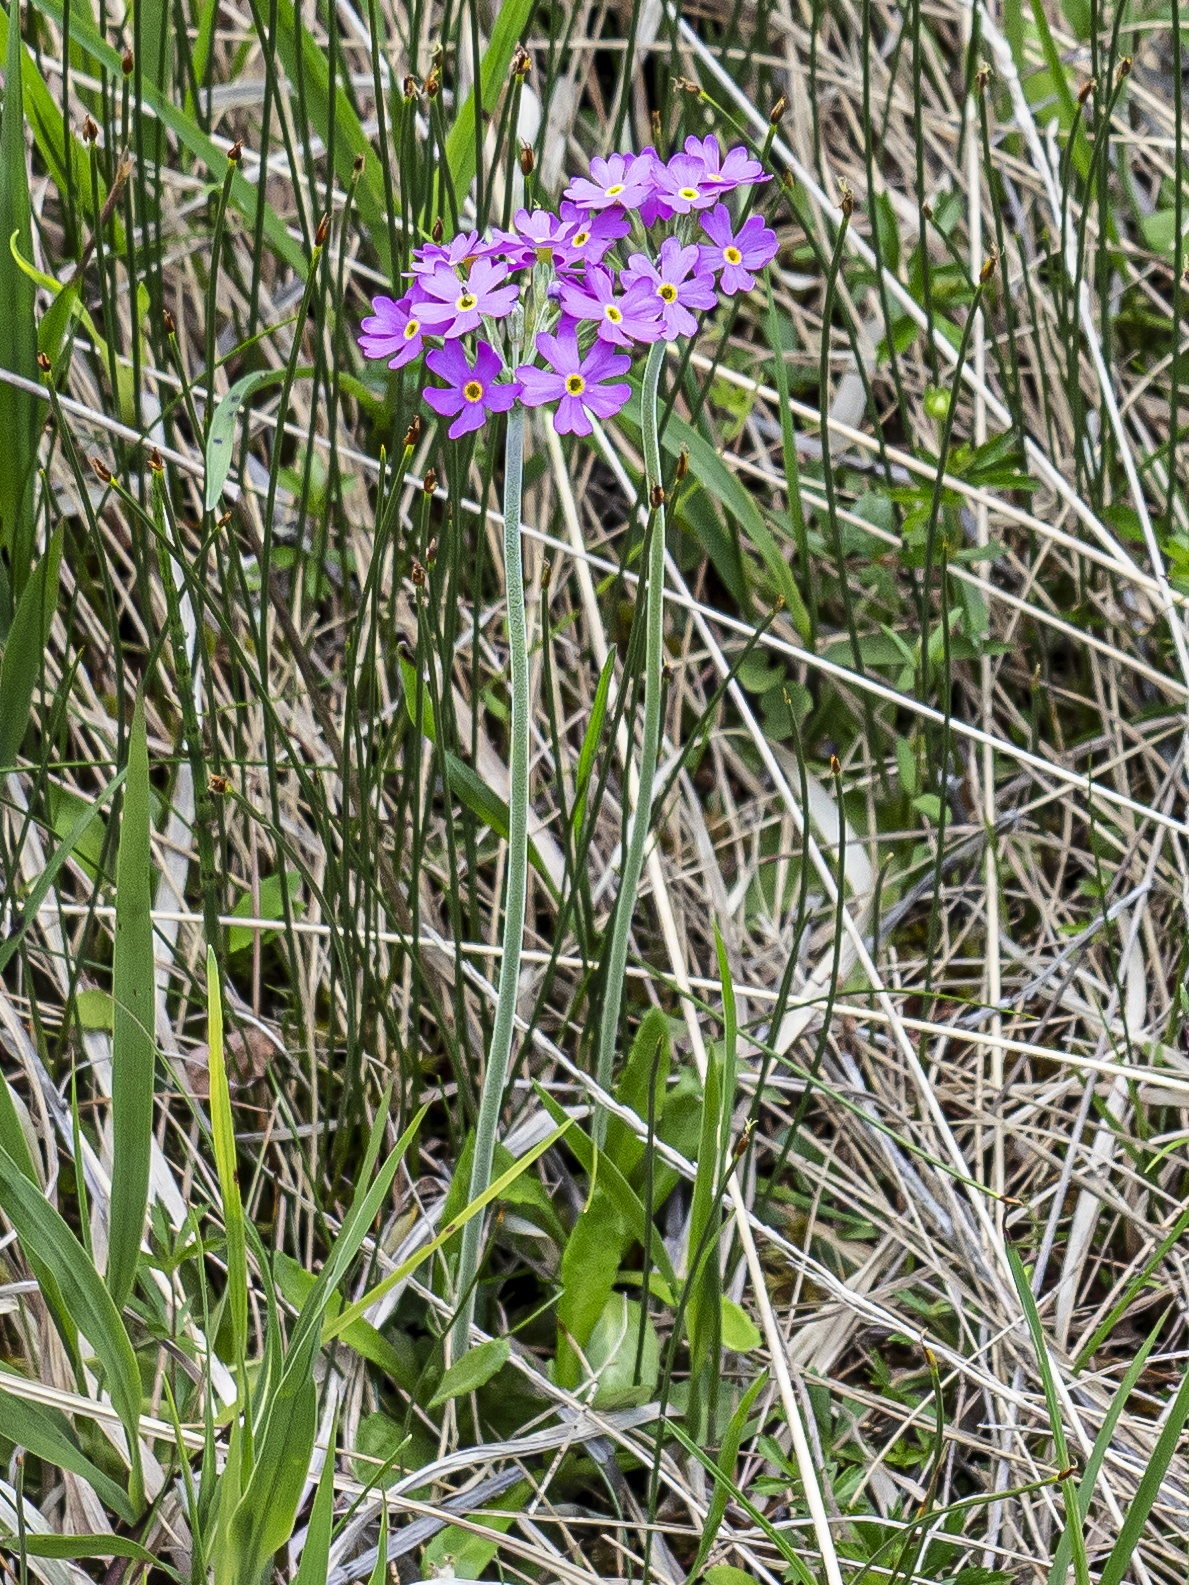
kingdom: Plantae
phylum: Tracheophyta
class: Magnoliopsida
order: Ericales
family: Primulaceae
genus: Primula
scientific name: Primula farinosa
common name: Bird's-eye primrose
